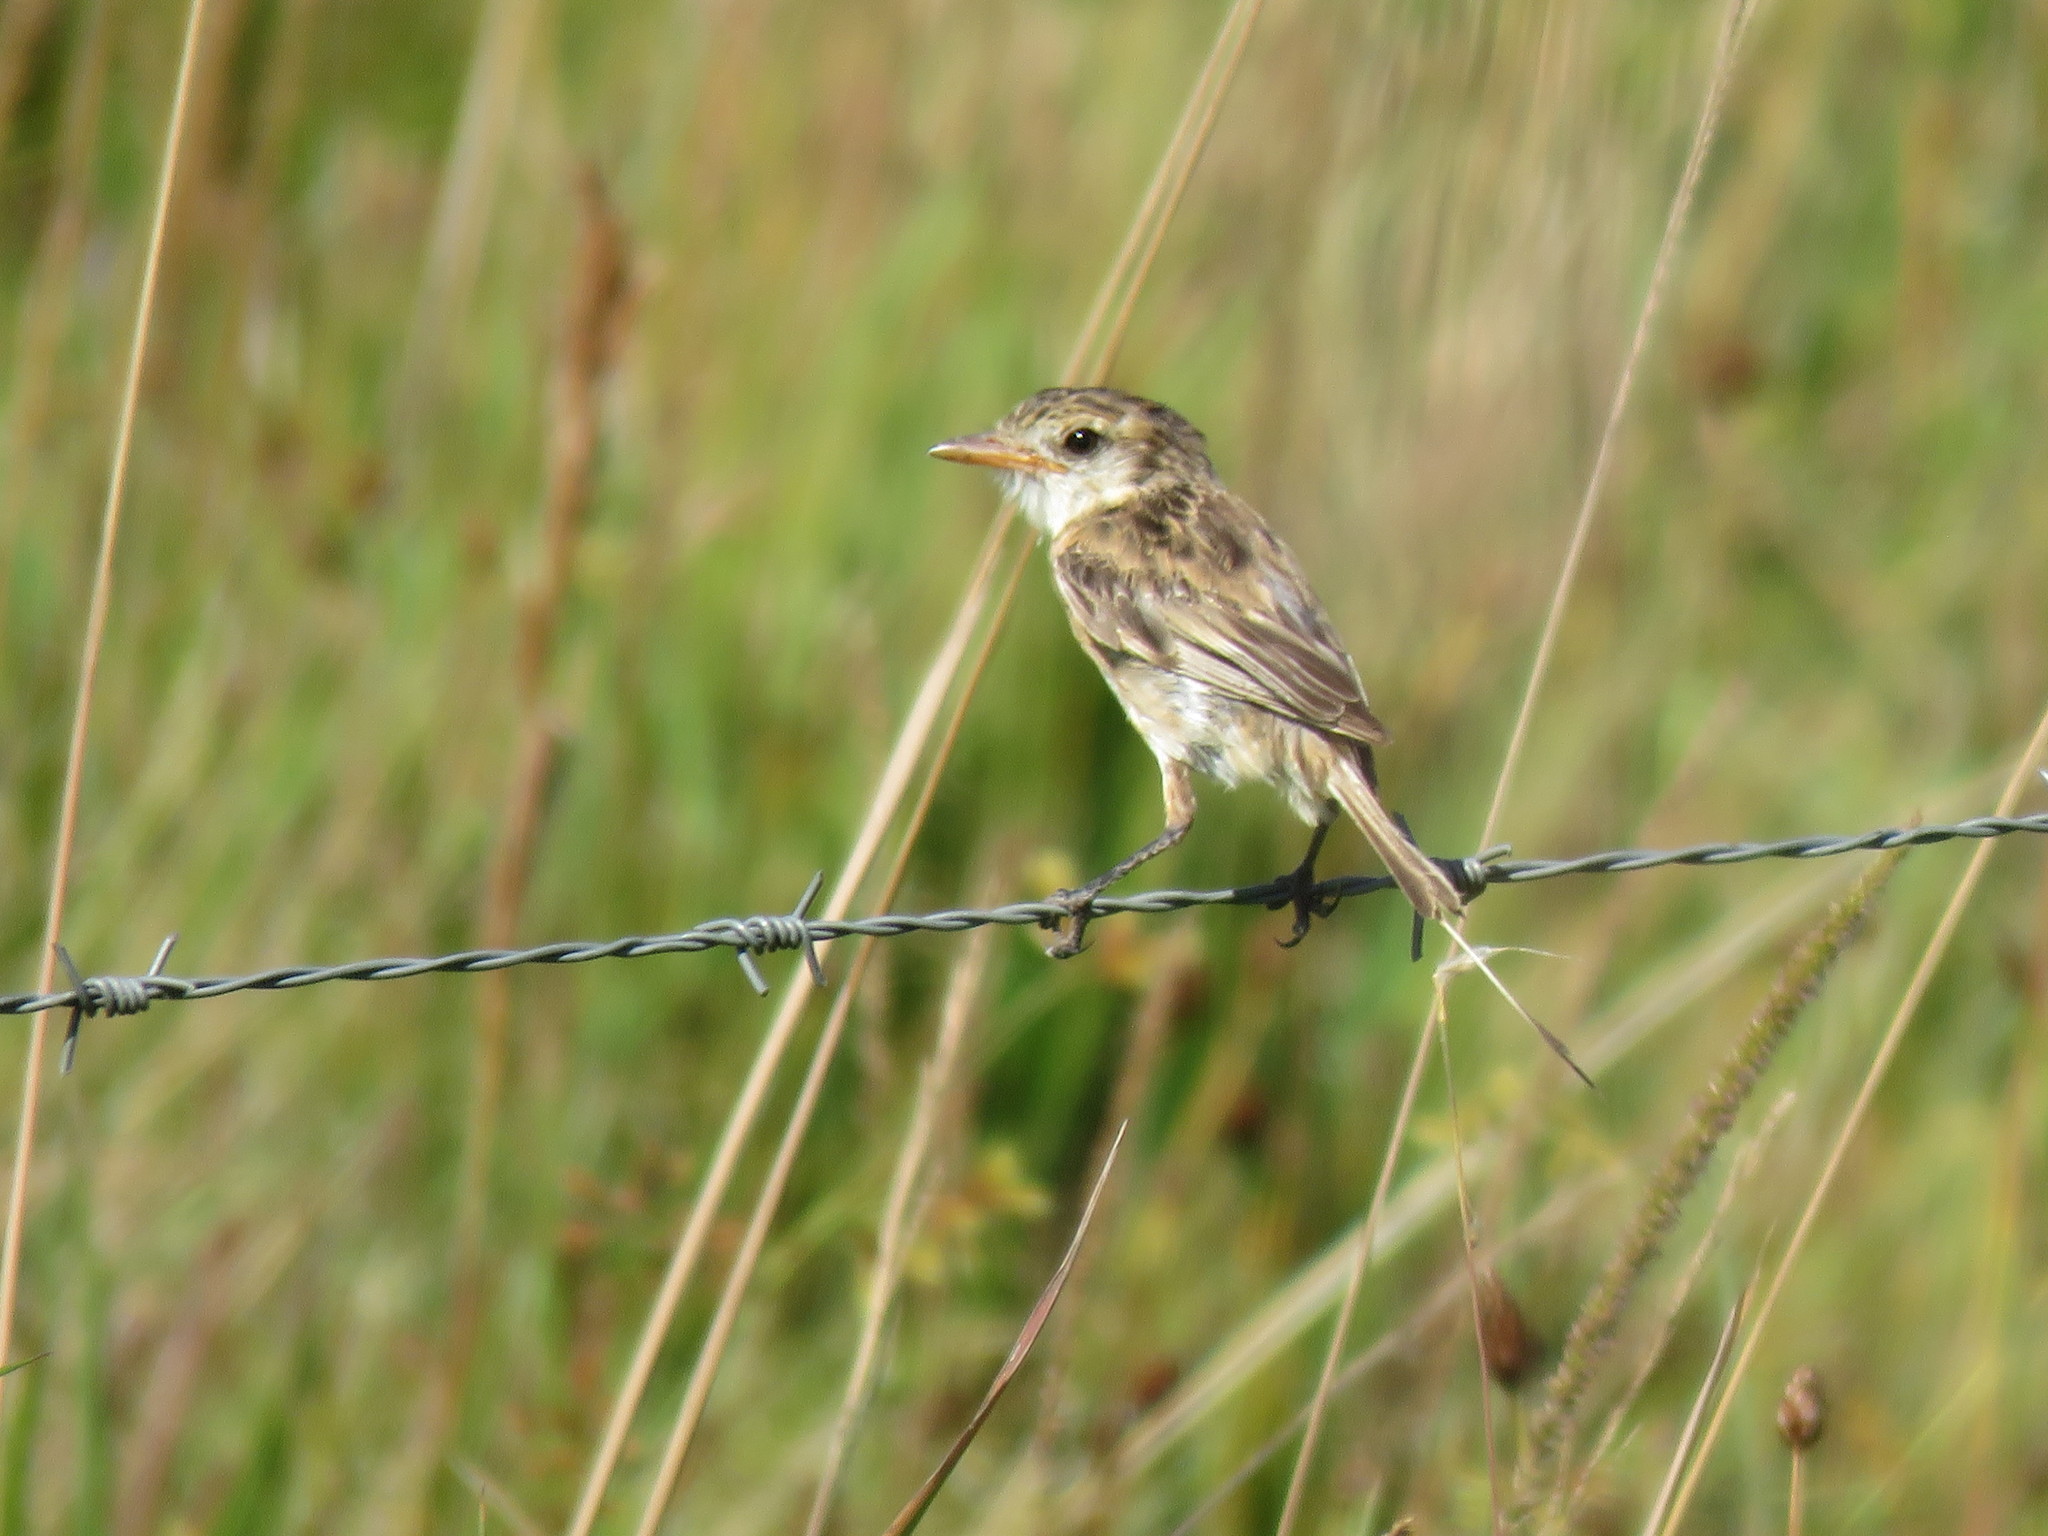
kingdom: Animalia
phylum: Chordata
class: Aves
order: Passeriformes
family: Tyrannidae
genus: Alectrurus
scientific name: Alectrurus risora
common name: Strange-tailed tyrant
